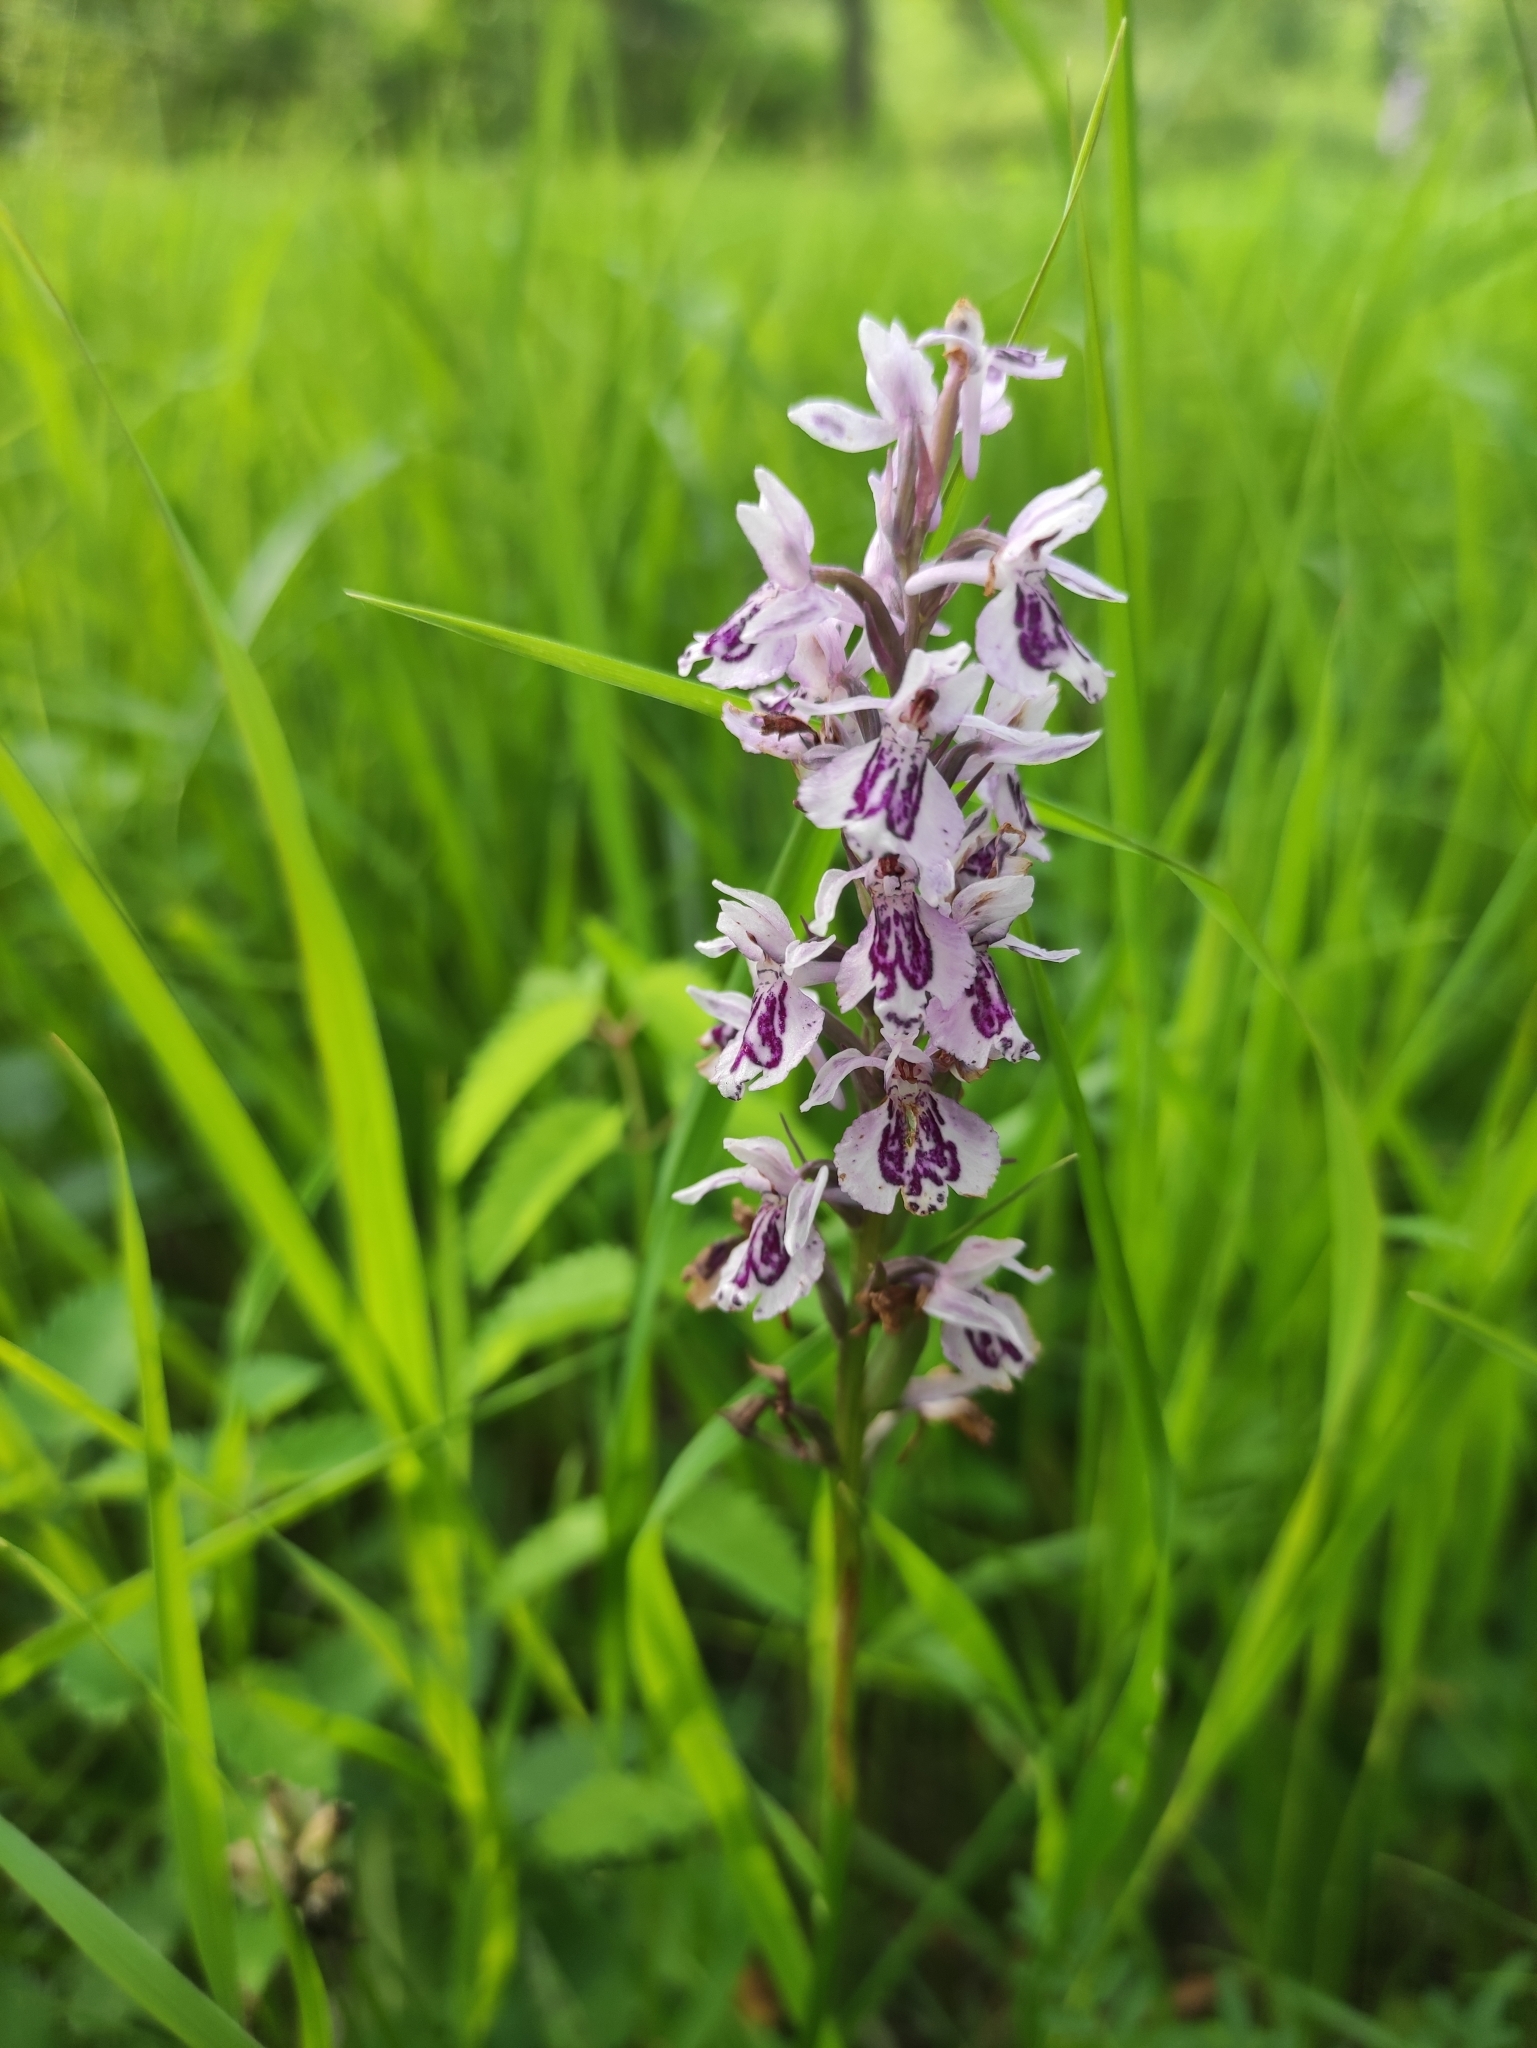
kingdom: Plantae
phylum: Tracheophyta
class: Liliopsida
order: Asparagales
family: Orchidaceae
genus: Dactylorhiza
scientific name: Dactylorhiza maculata
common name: Heath spotted-orchid
